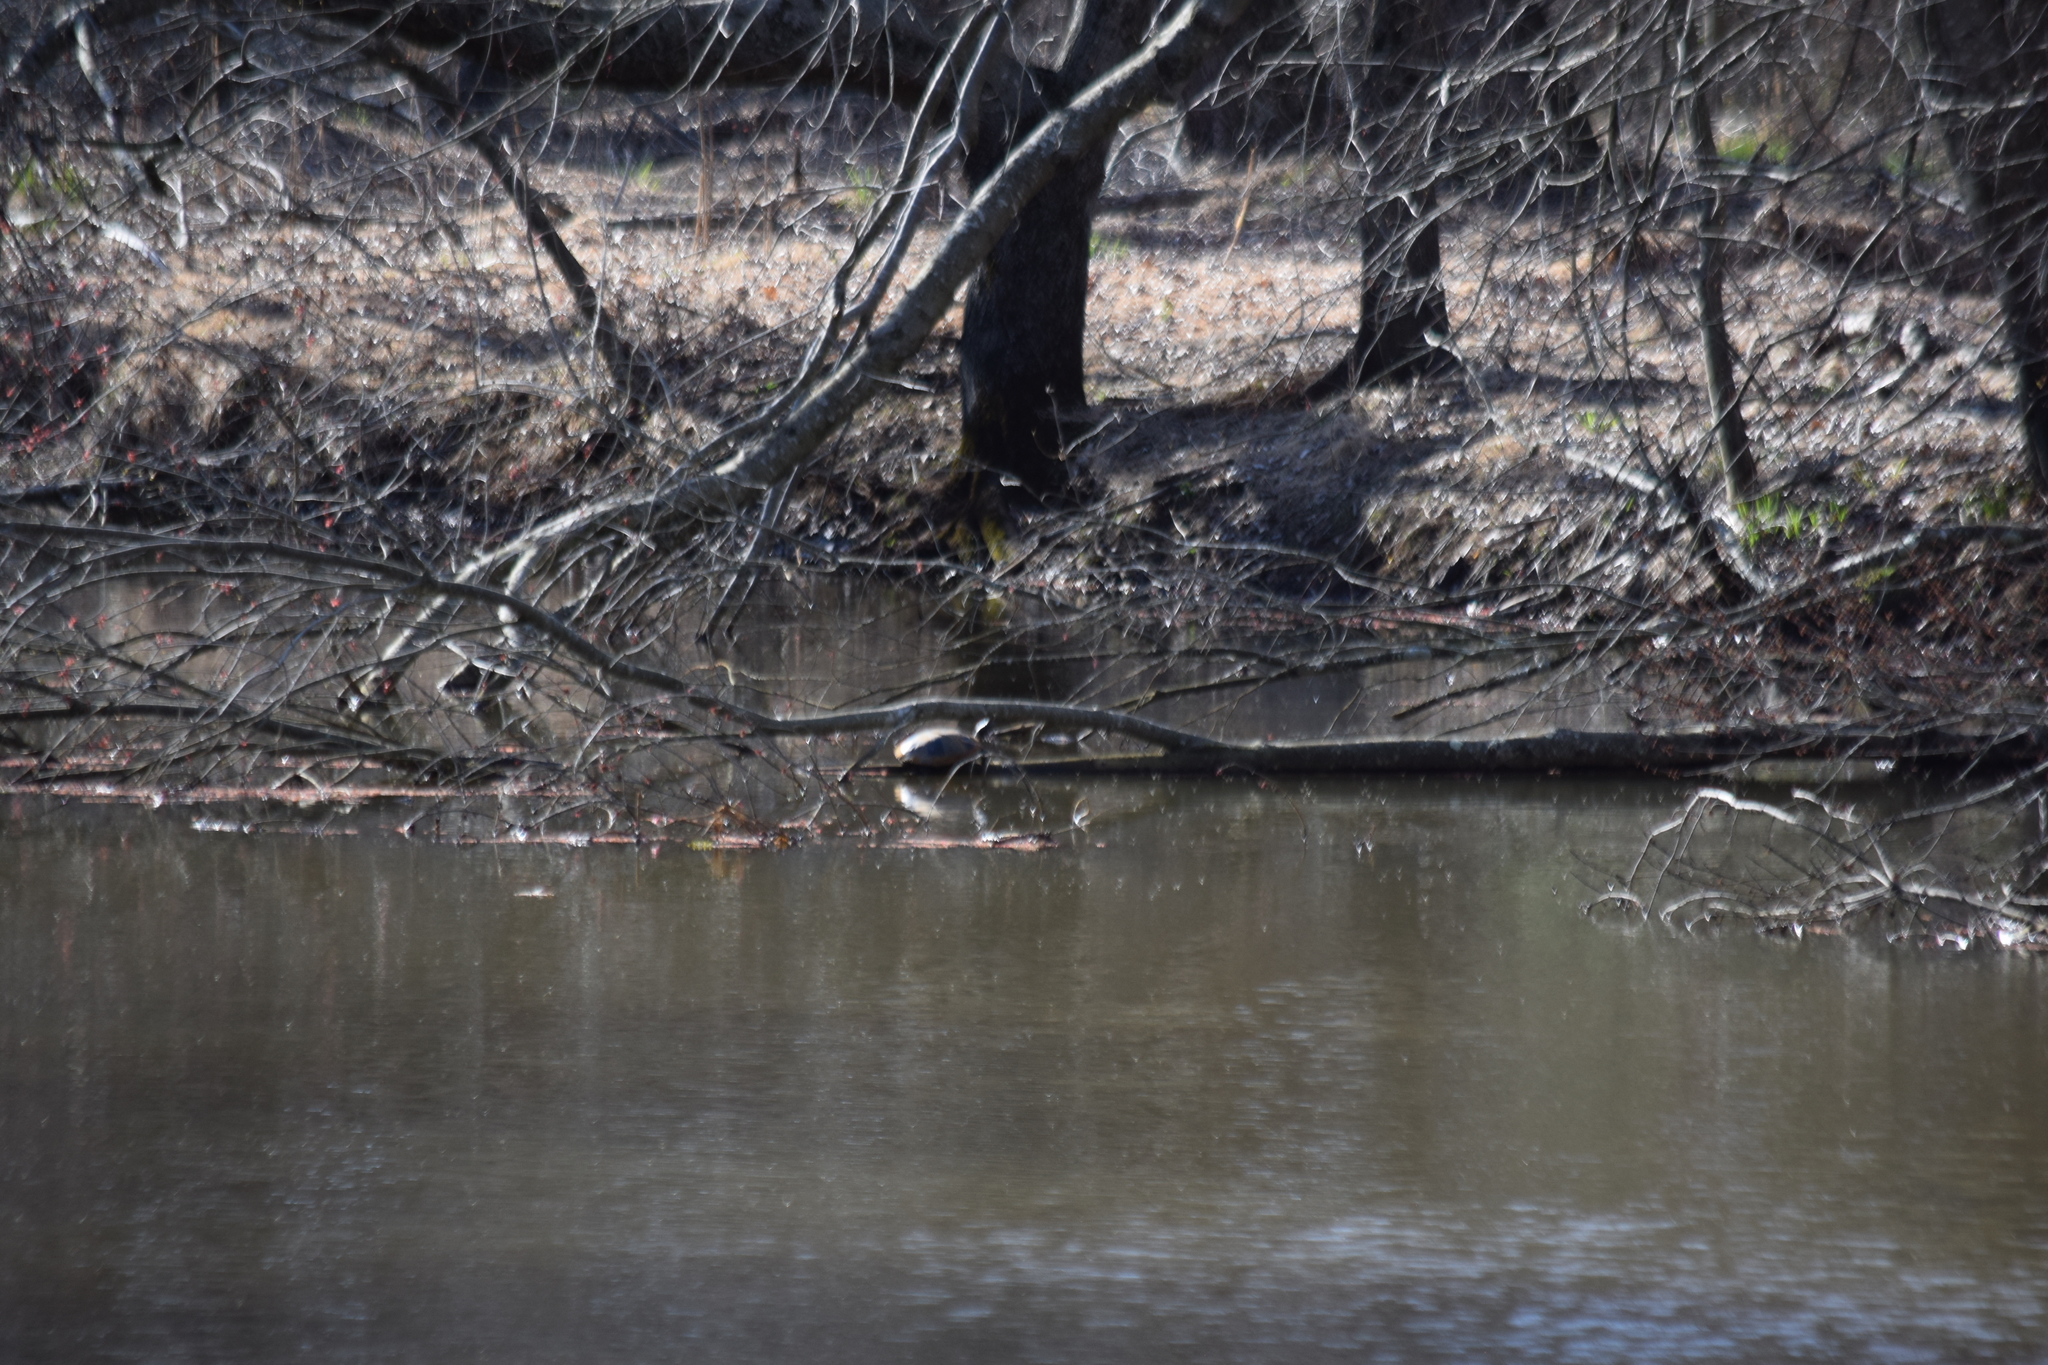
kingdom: Animalia
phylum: Chordata
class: Testudines
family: Emydidae
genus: Pseudemys
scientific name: Pseudemys rubriventris
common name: American red-bellied turtle
